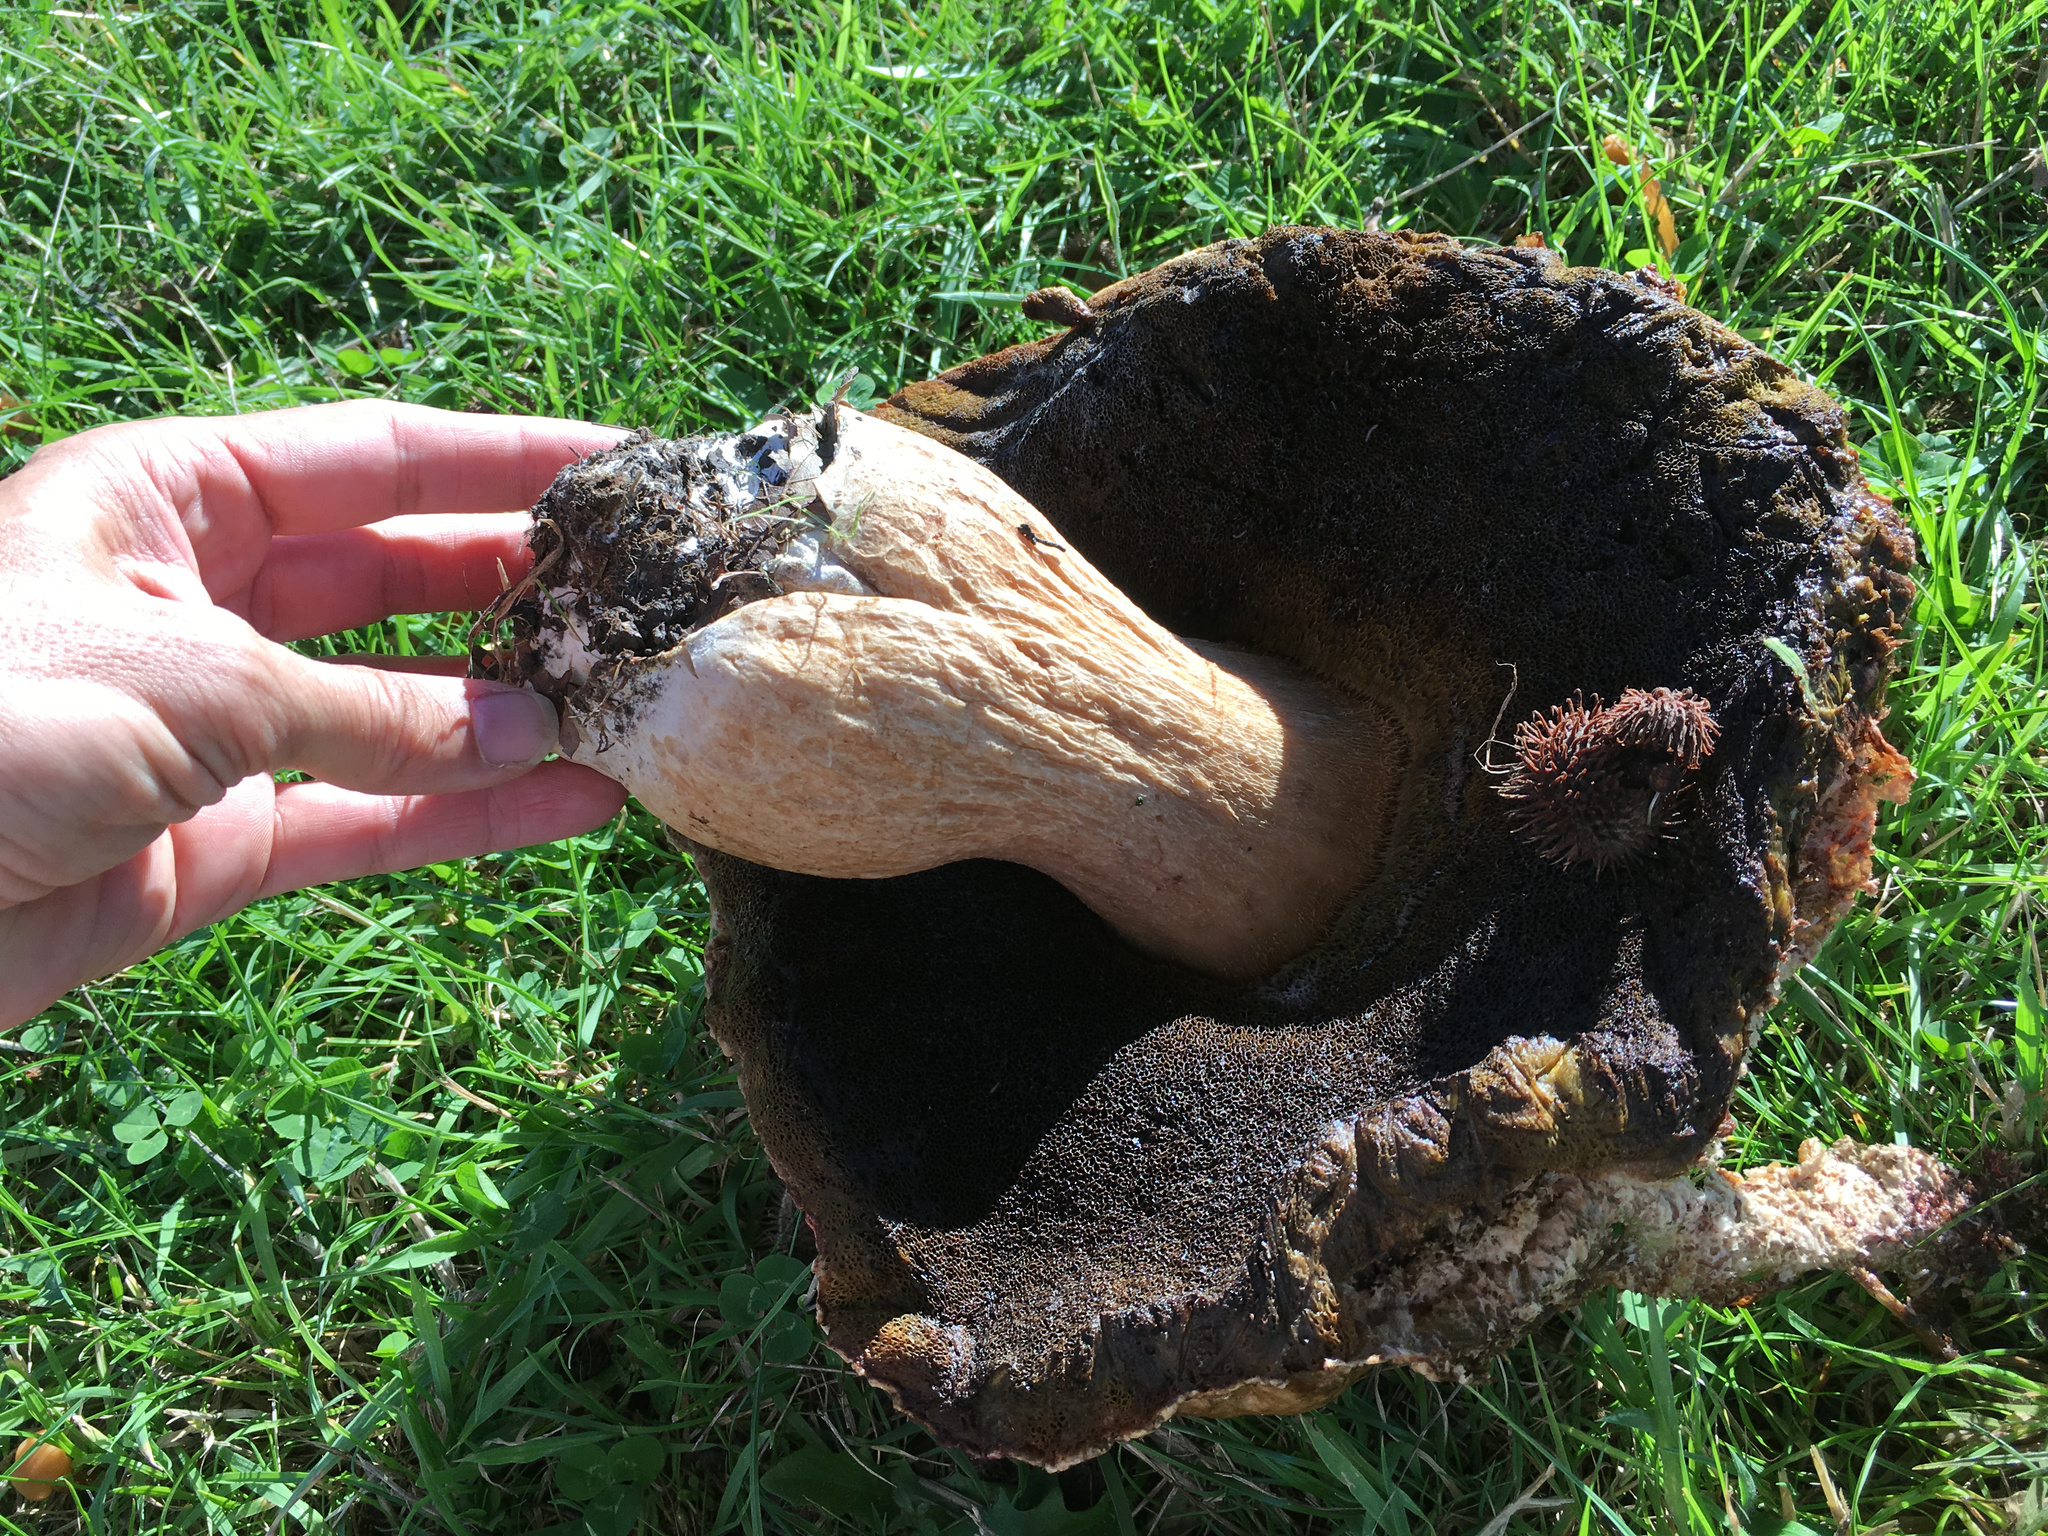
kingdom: Fungi
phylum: Basidiomycota
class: Agaricomycetes
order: Boletales
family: Boletaceae
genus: Boletus
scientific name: Boletus edulis
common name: Cep
